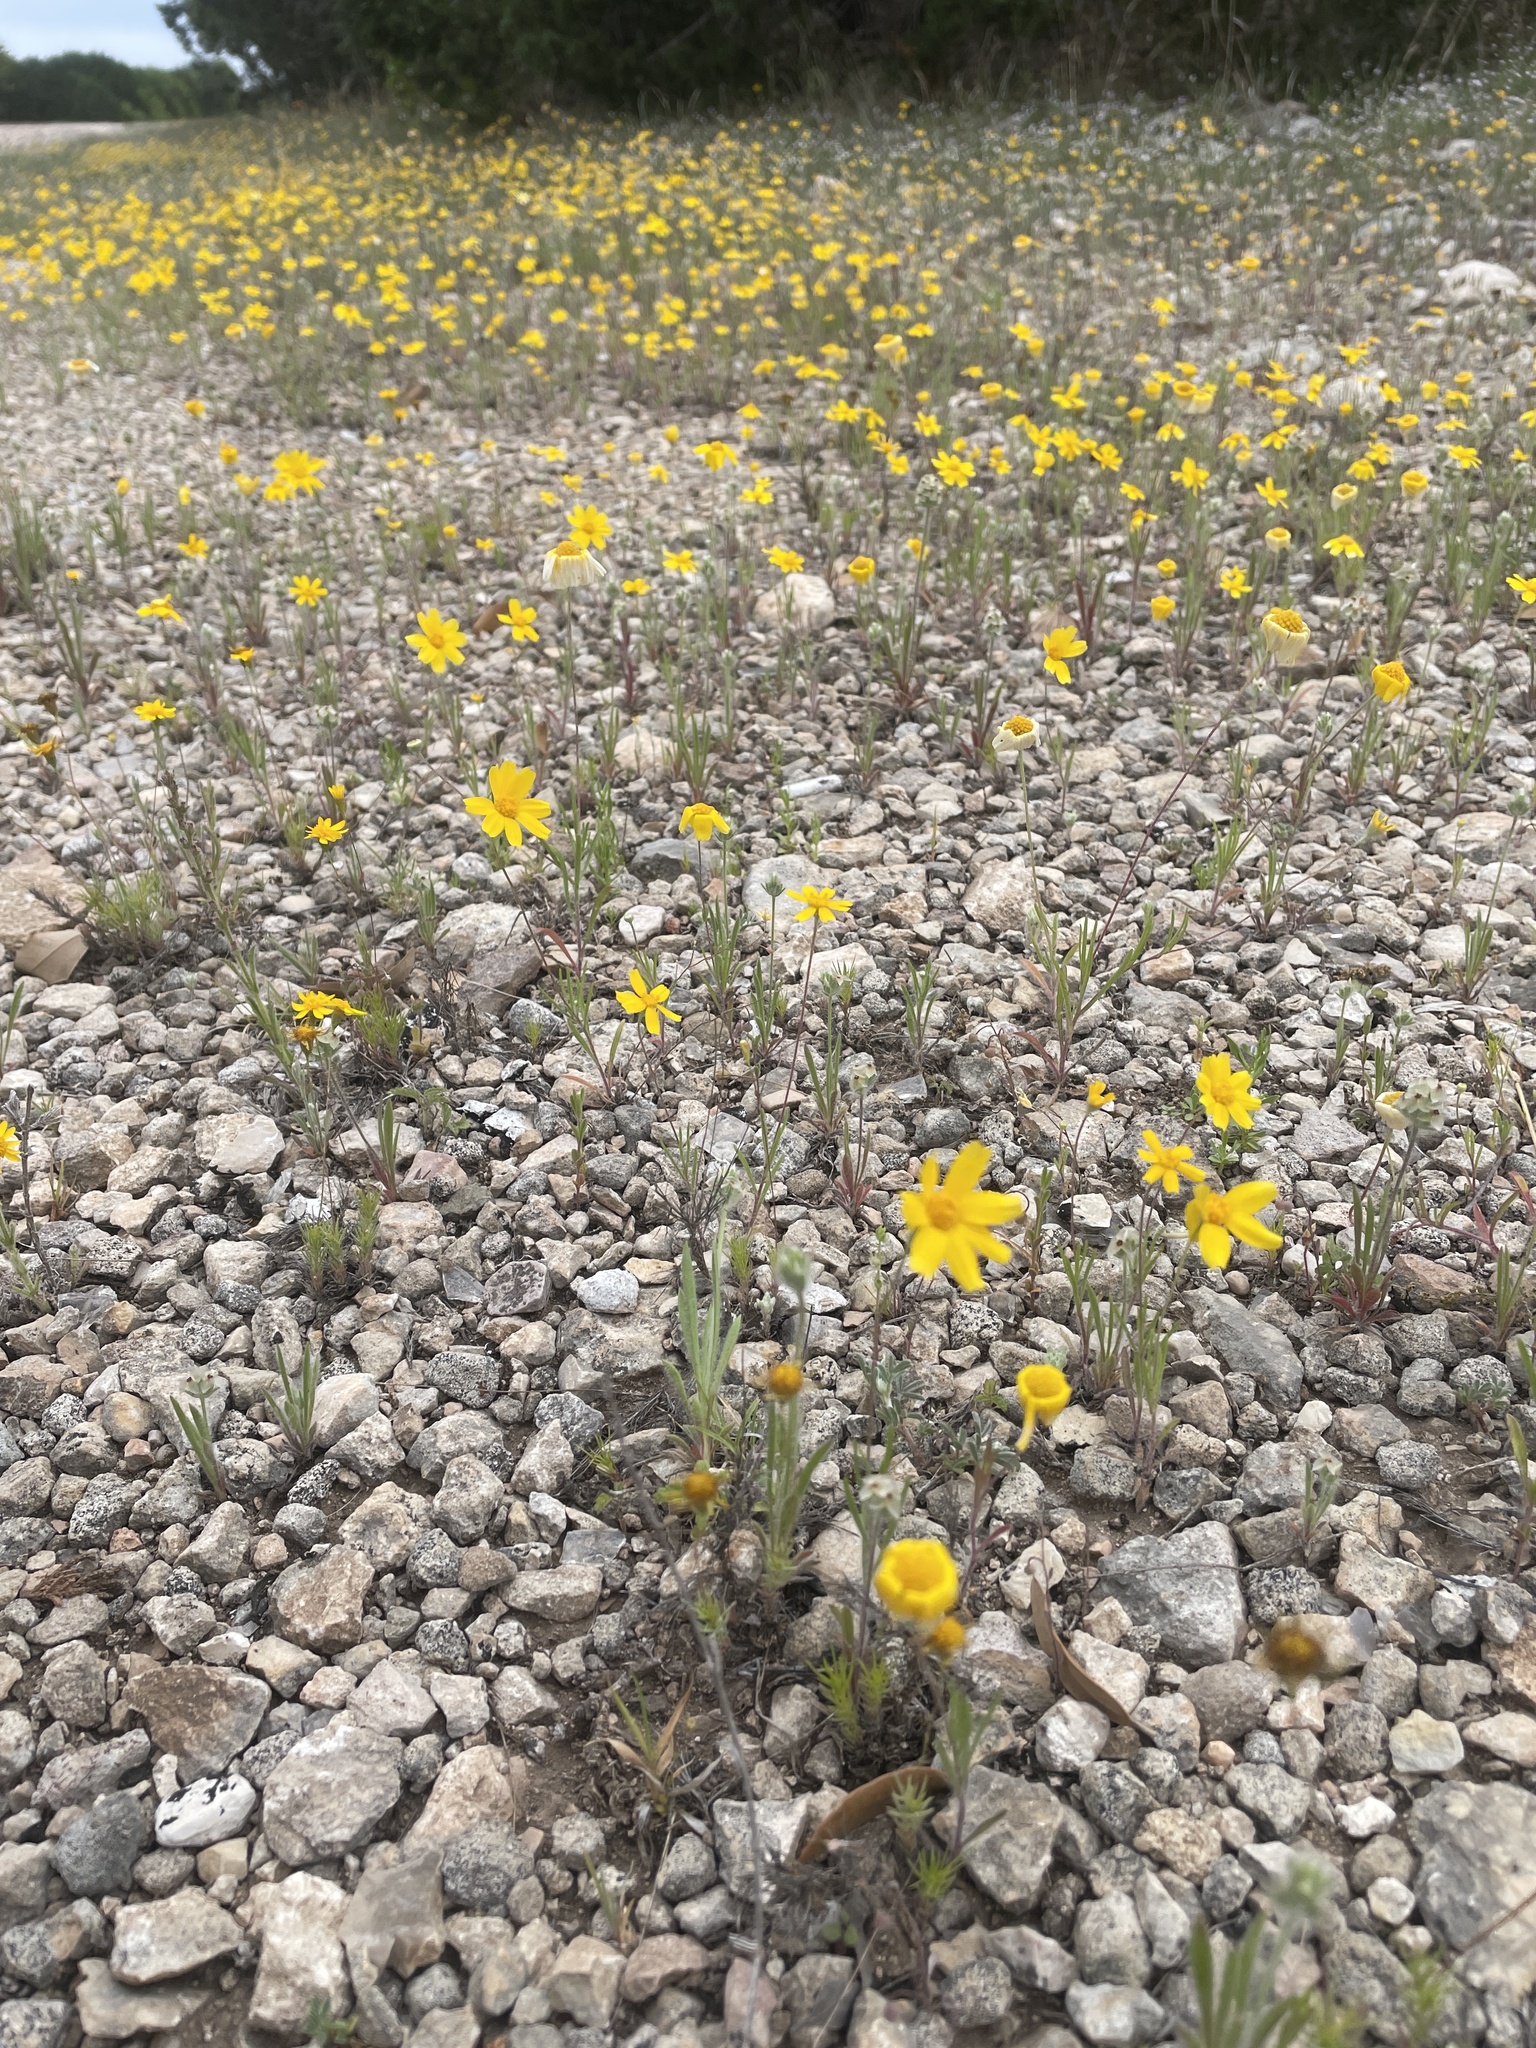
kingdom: Plantae
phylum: Tracheophyta
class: Magnoliopsida
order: Asterales
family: Asteraceae
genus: Tetraneuris
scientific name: Tetraneuris linearifolia
